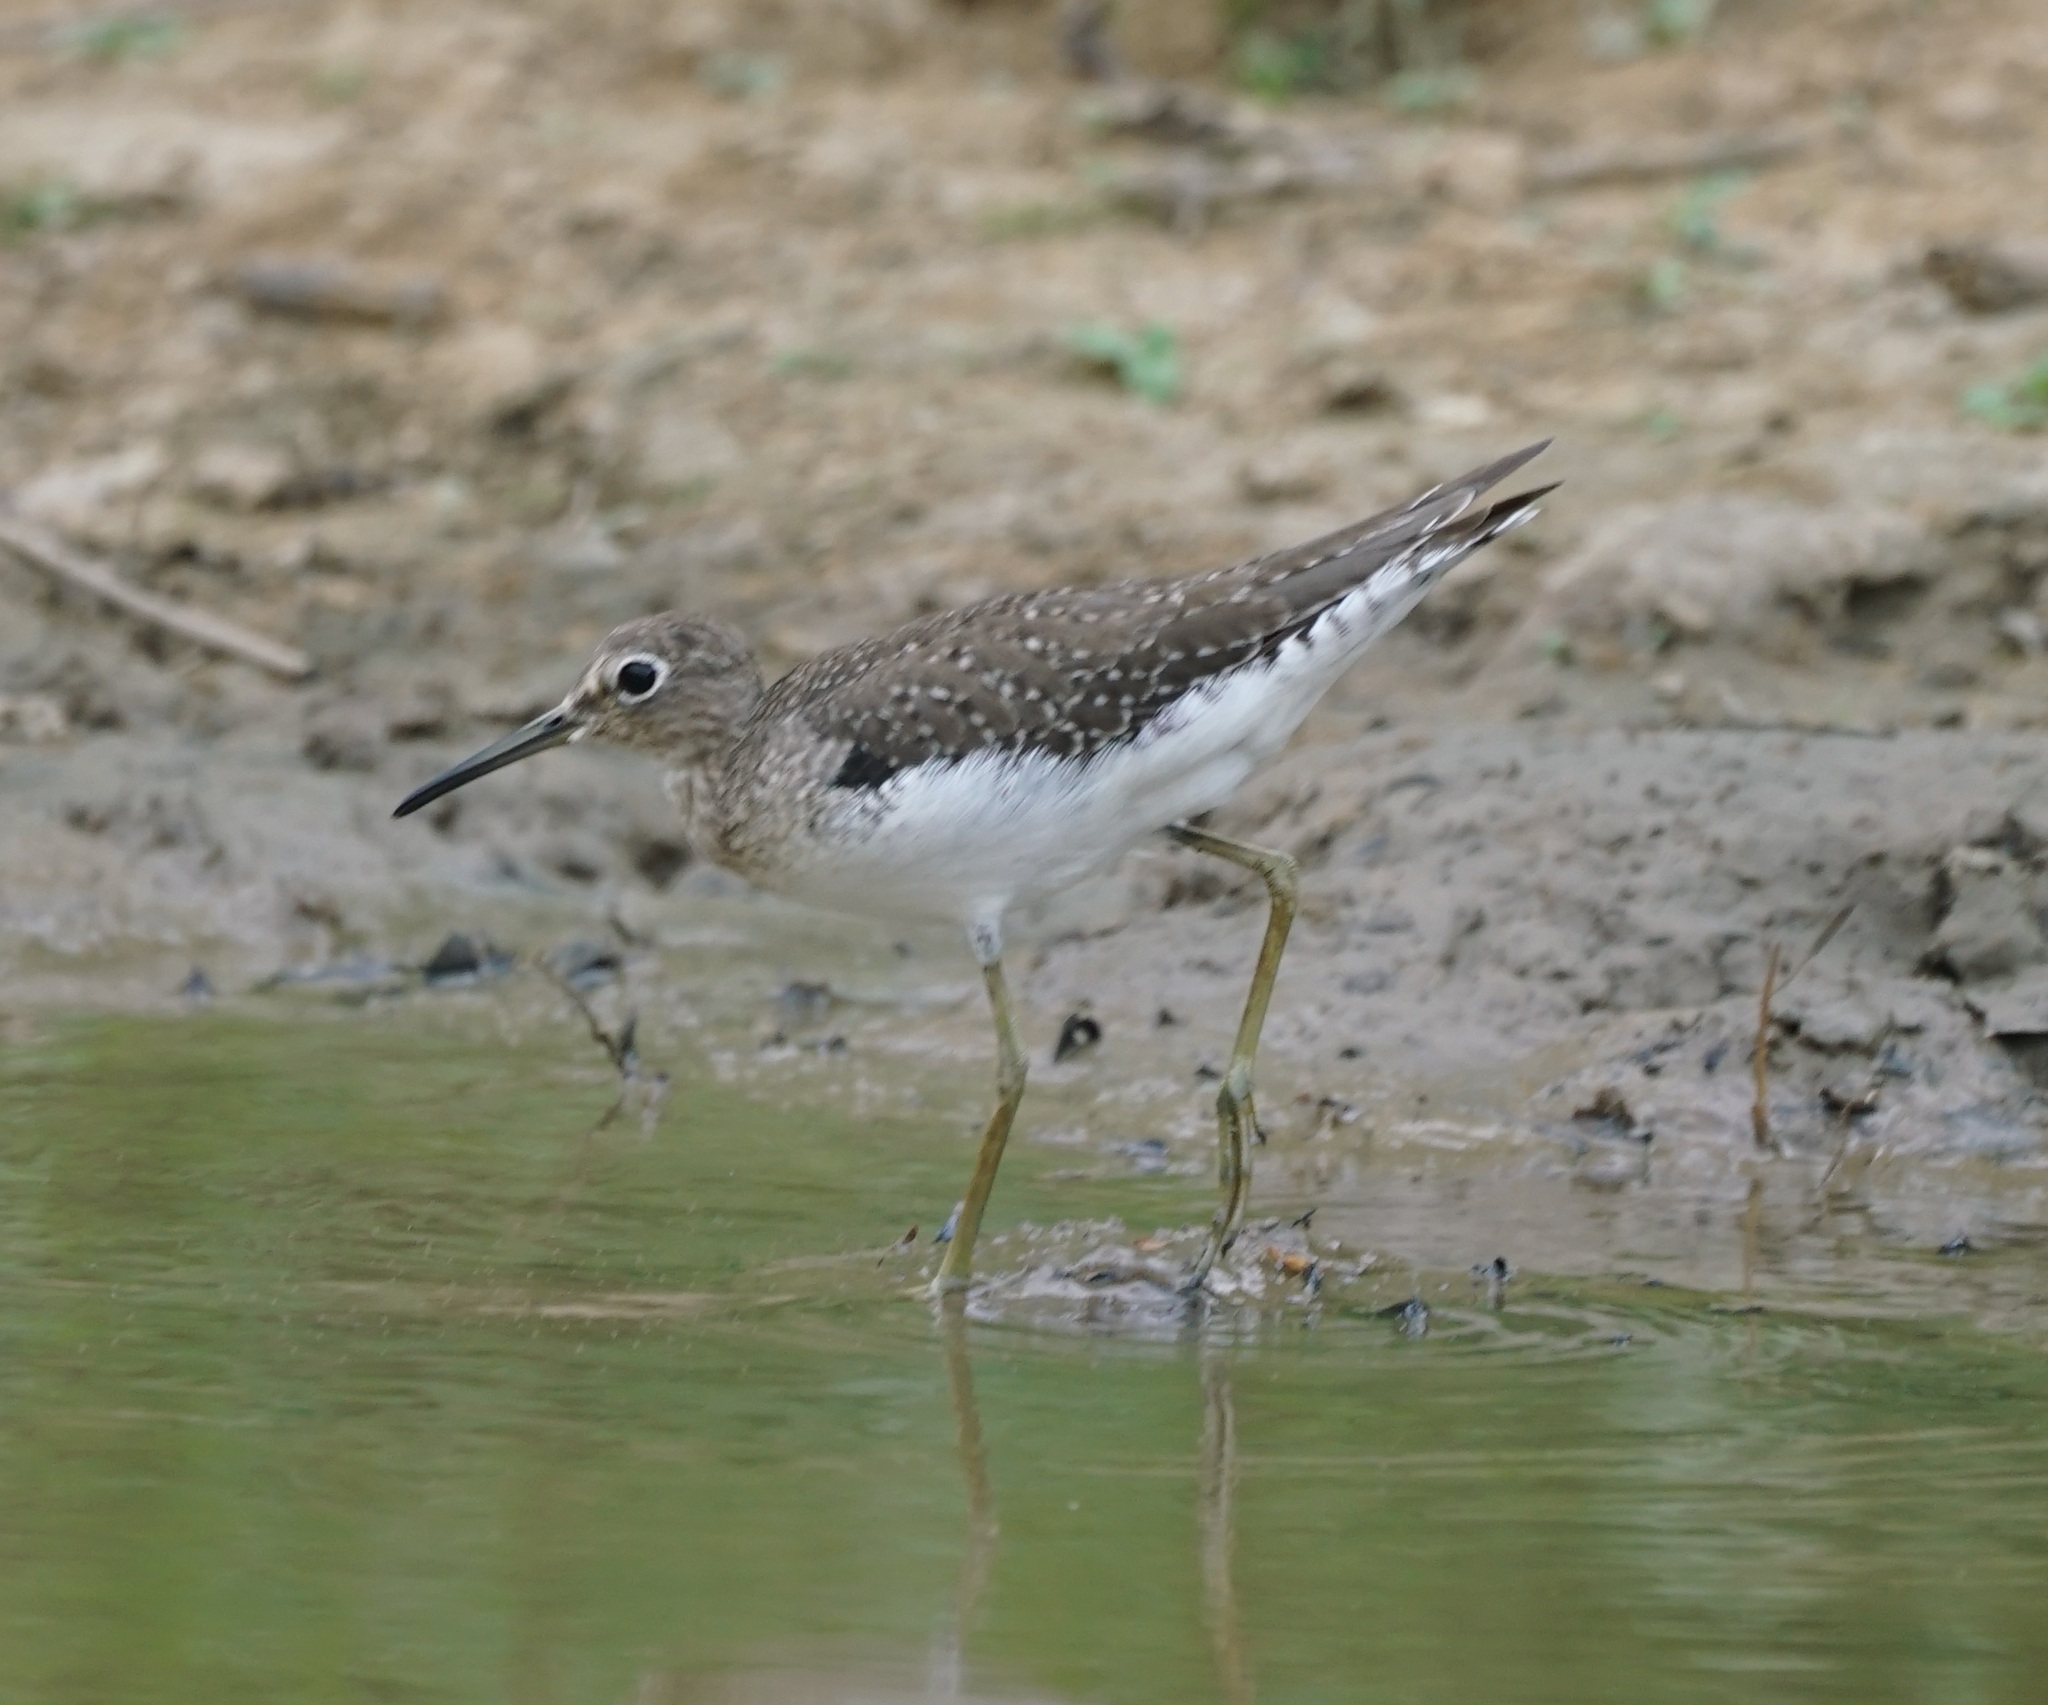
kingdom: Animalia
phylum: Chordata
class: Aves
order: Charadriiformes
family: Scolopacidae
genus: Tringa
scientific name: Tringa solitaria
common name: Solitary sandpiper
